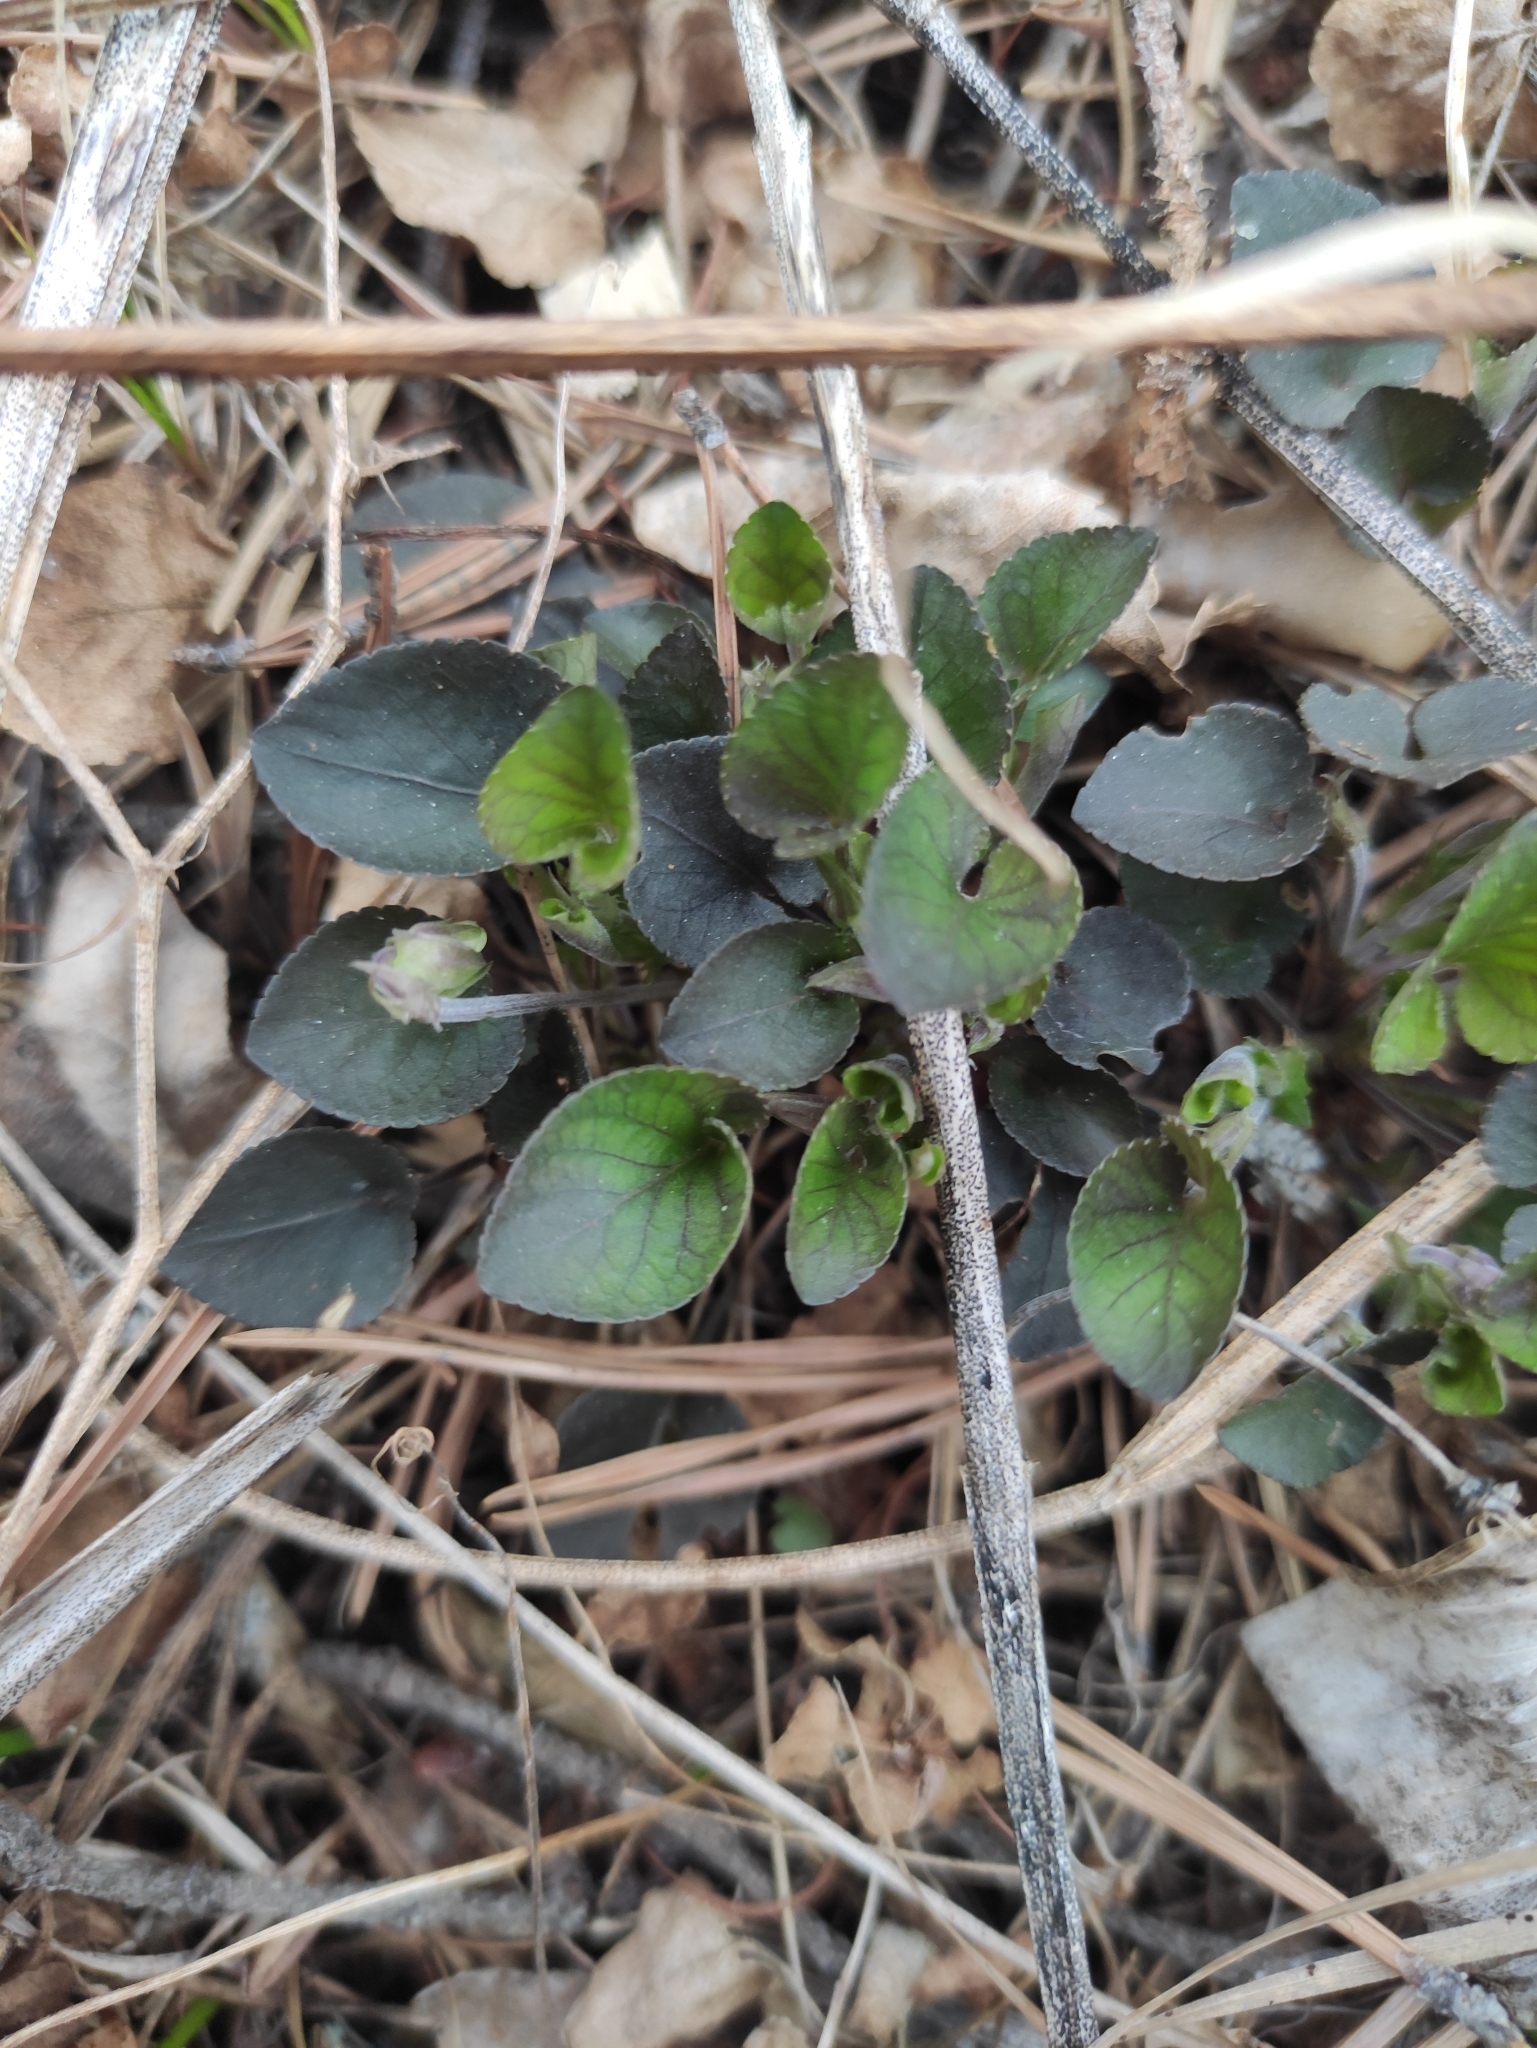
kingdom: Plantae
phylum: Tracheophyta
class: Magnoliopsida
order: Malpighiales
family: Violaceae
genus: Viola
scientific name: Viola rupestris
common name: Teesdale violet
